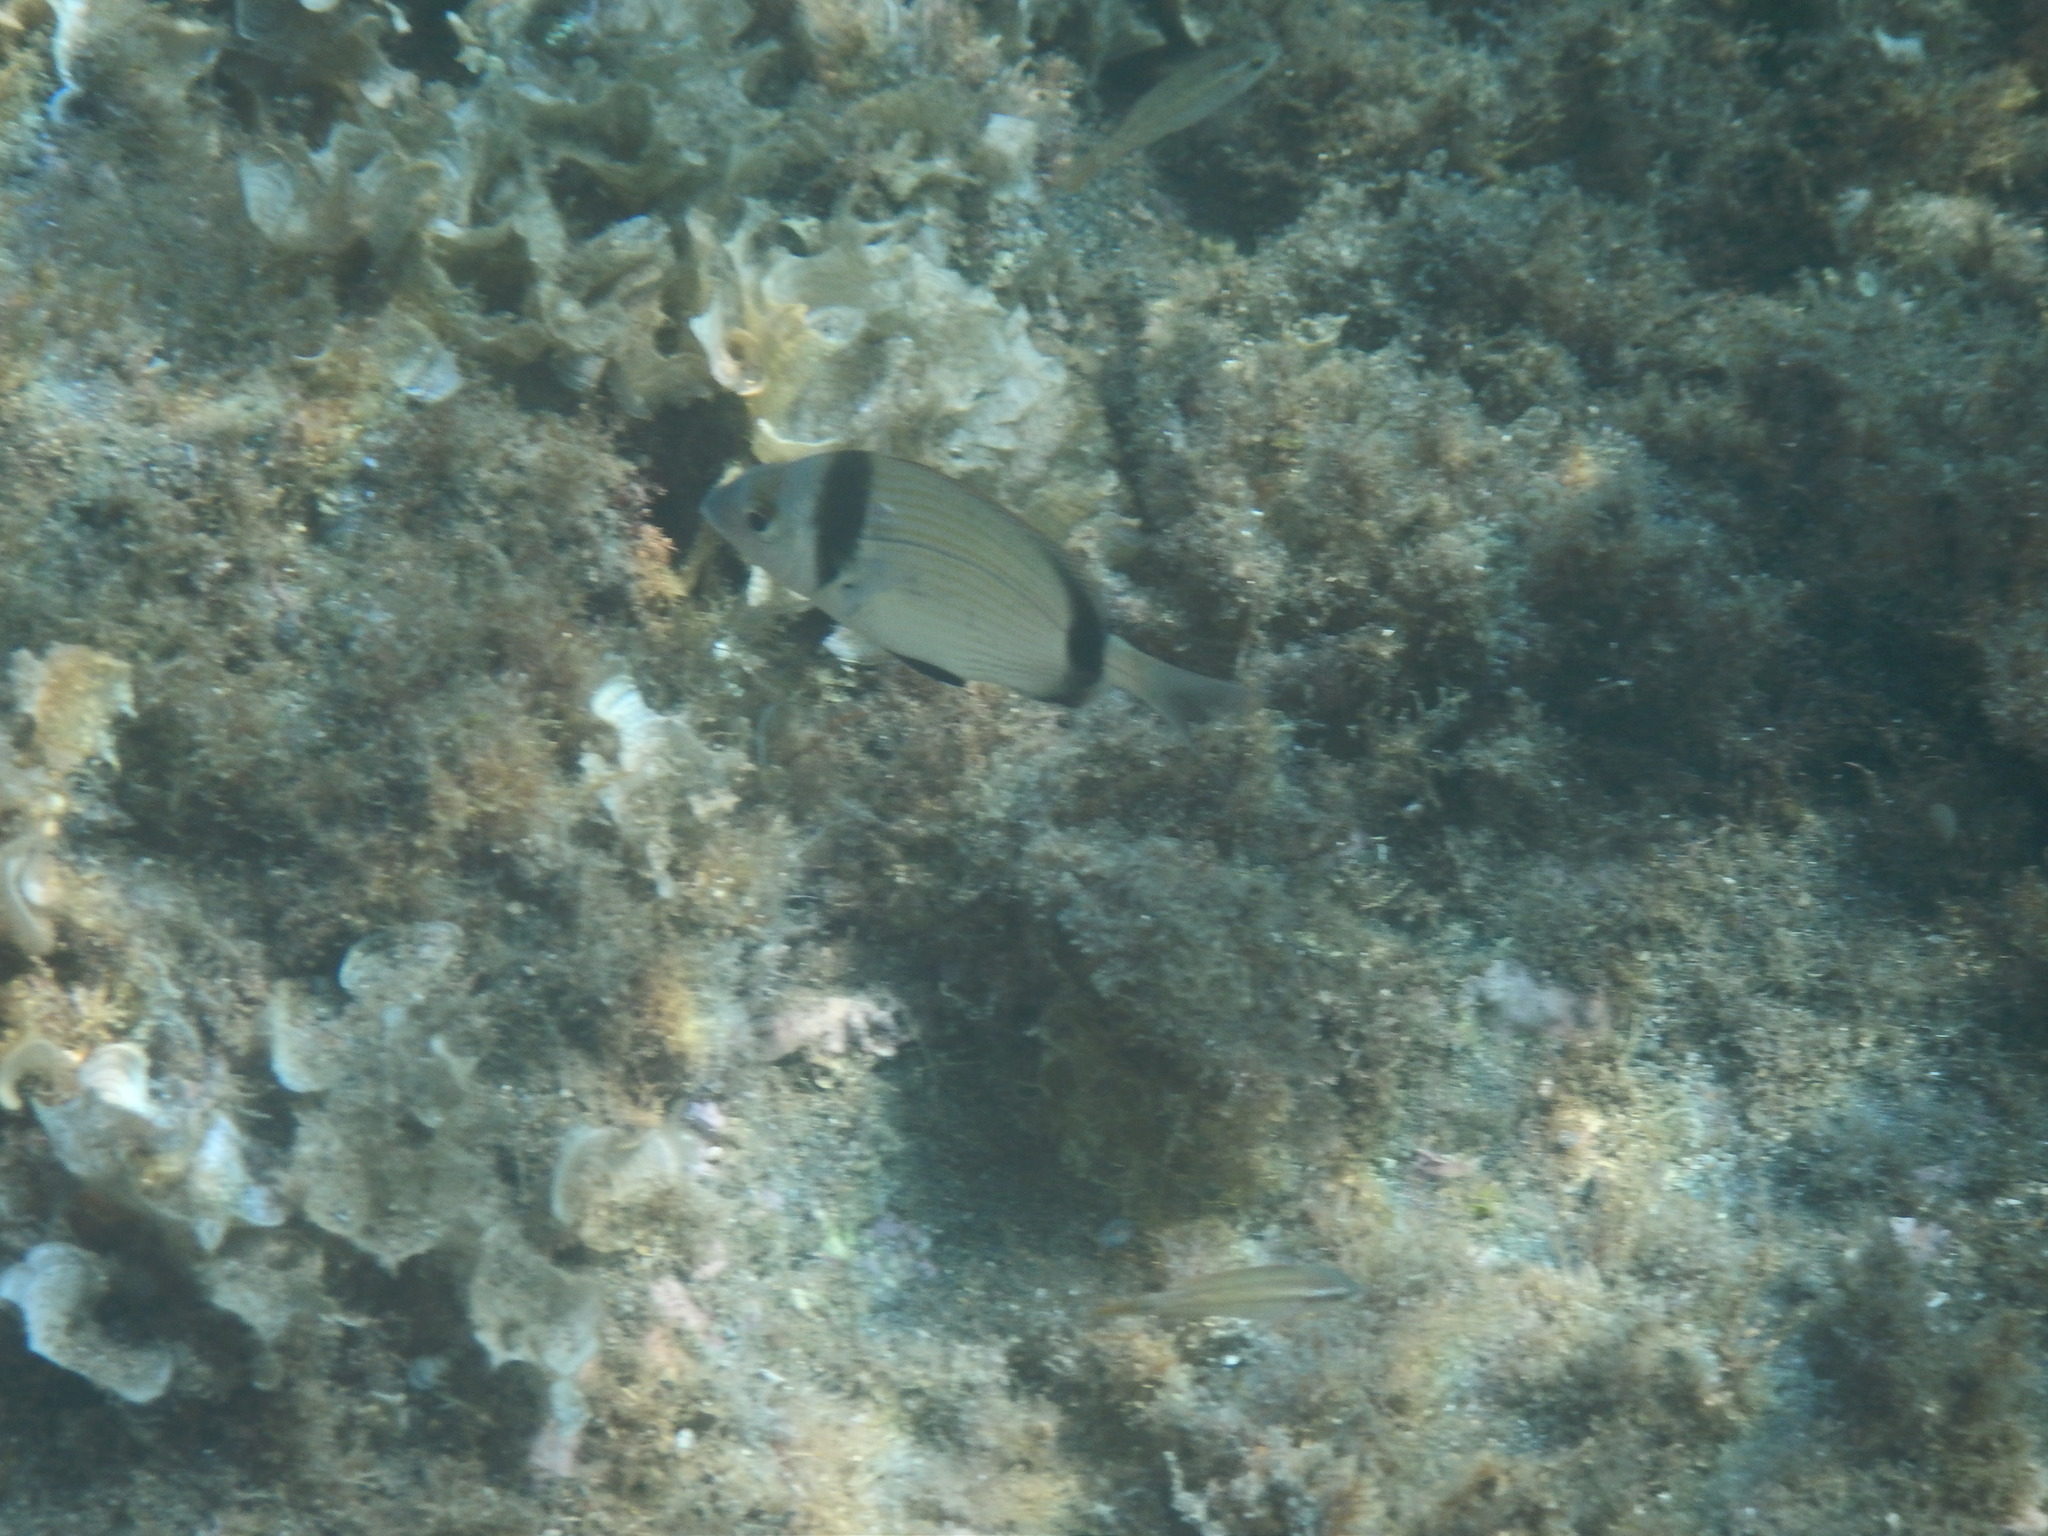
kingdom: Animalia
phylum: Chordata
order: Perciformes
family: Sparidae
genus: Diplodus
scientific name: Diplodus vulgaris
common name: Common two-banded seabream
